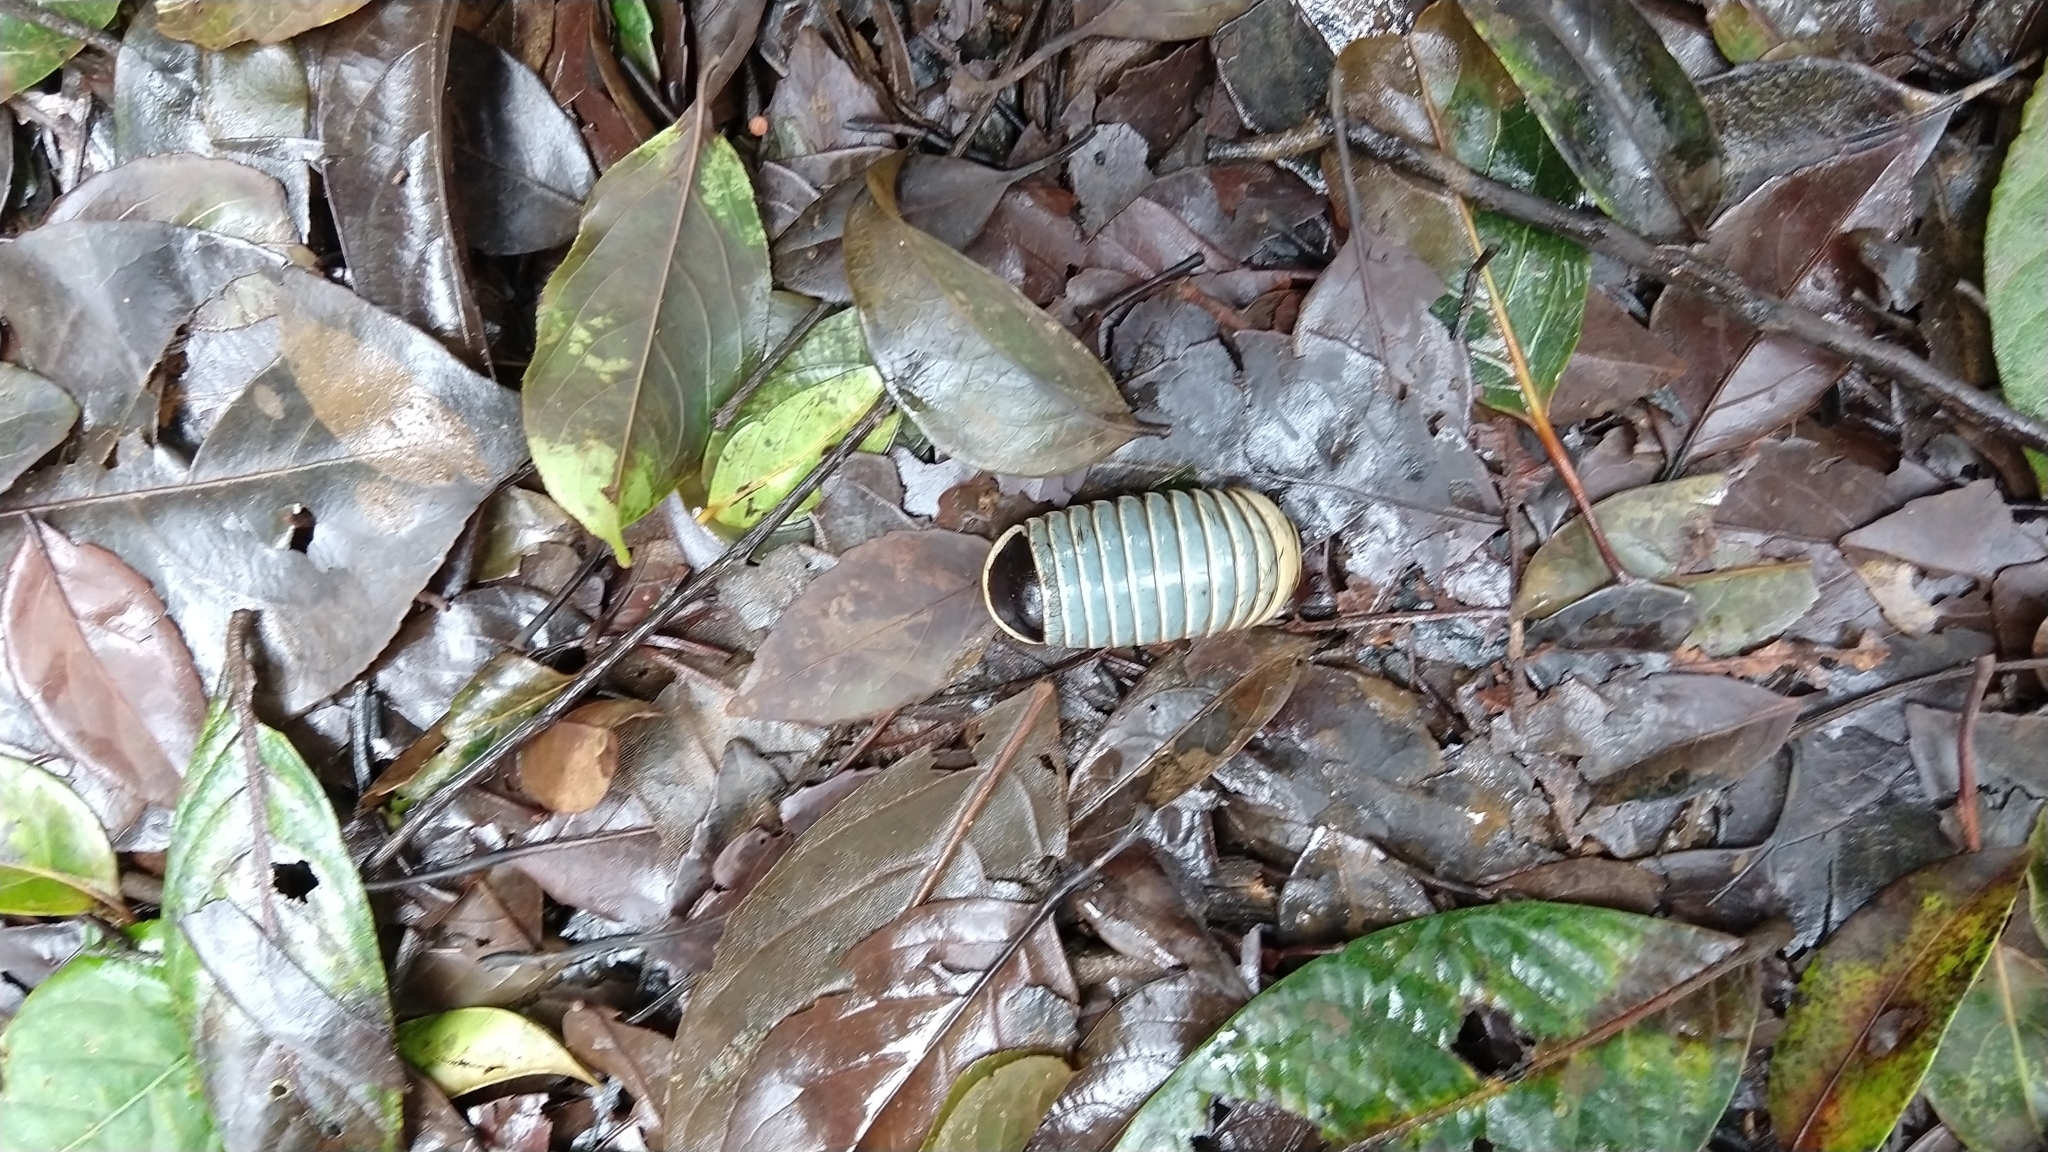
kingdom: Animalia
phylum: Arthropoda
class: Diplopoda
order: Sphaerotheriida
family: Arthrosphaeridae
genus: Arthrosphaera
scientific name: Arthrosphaera fumosa
